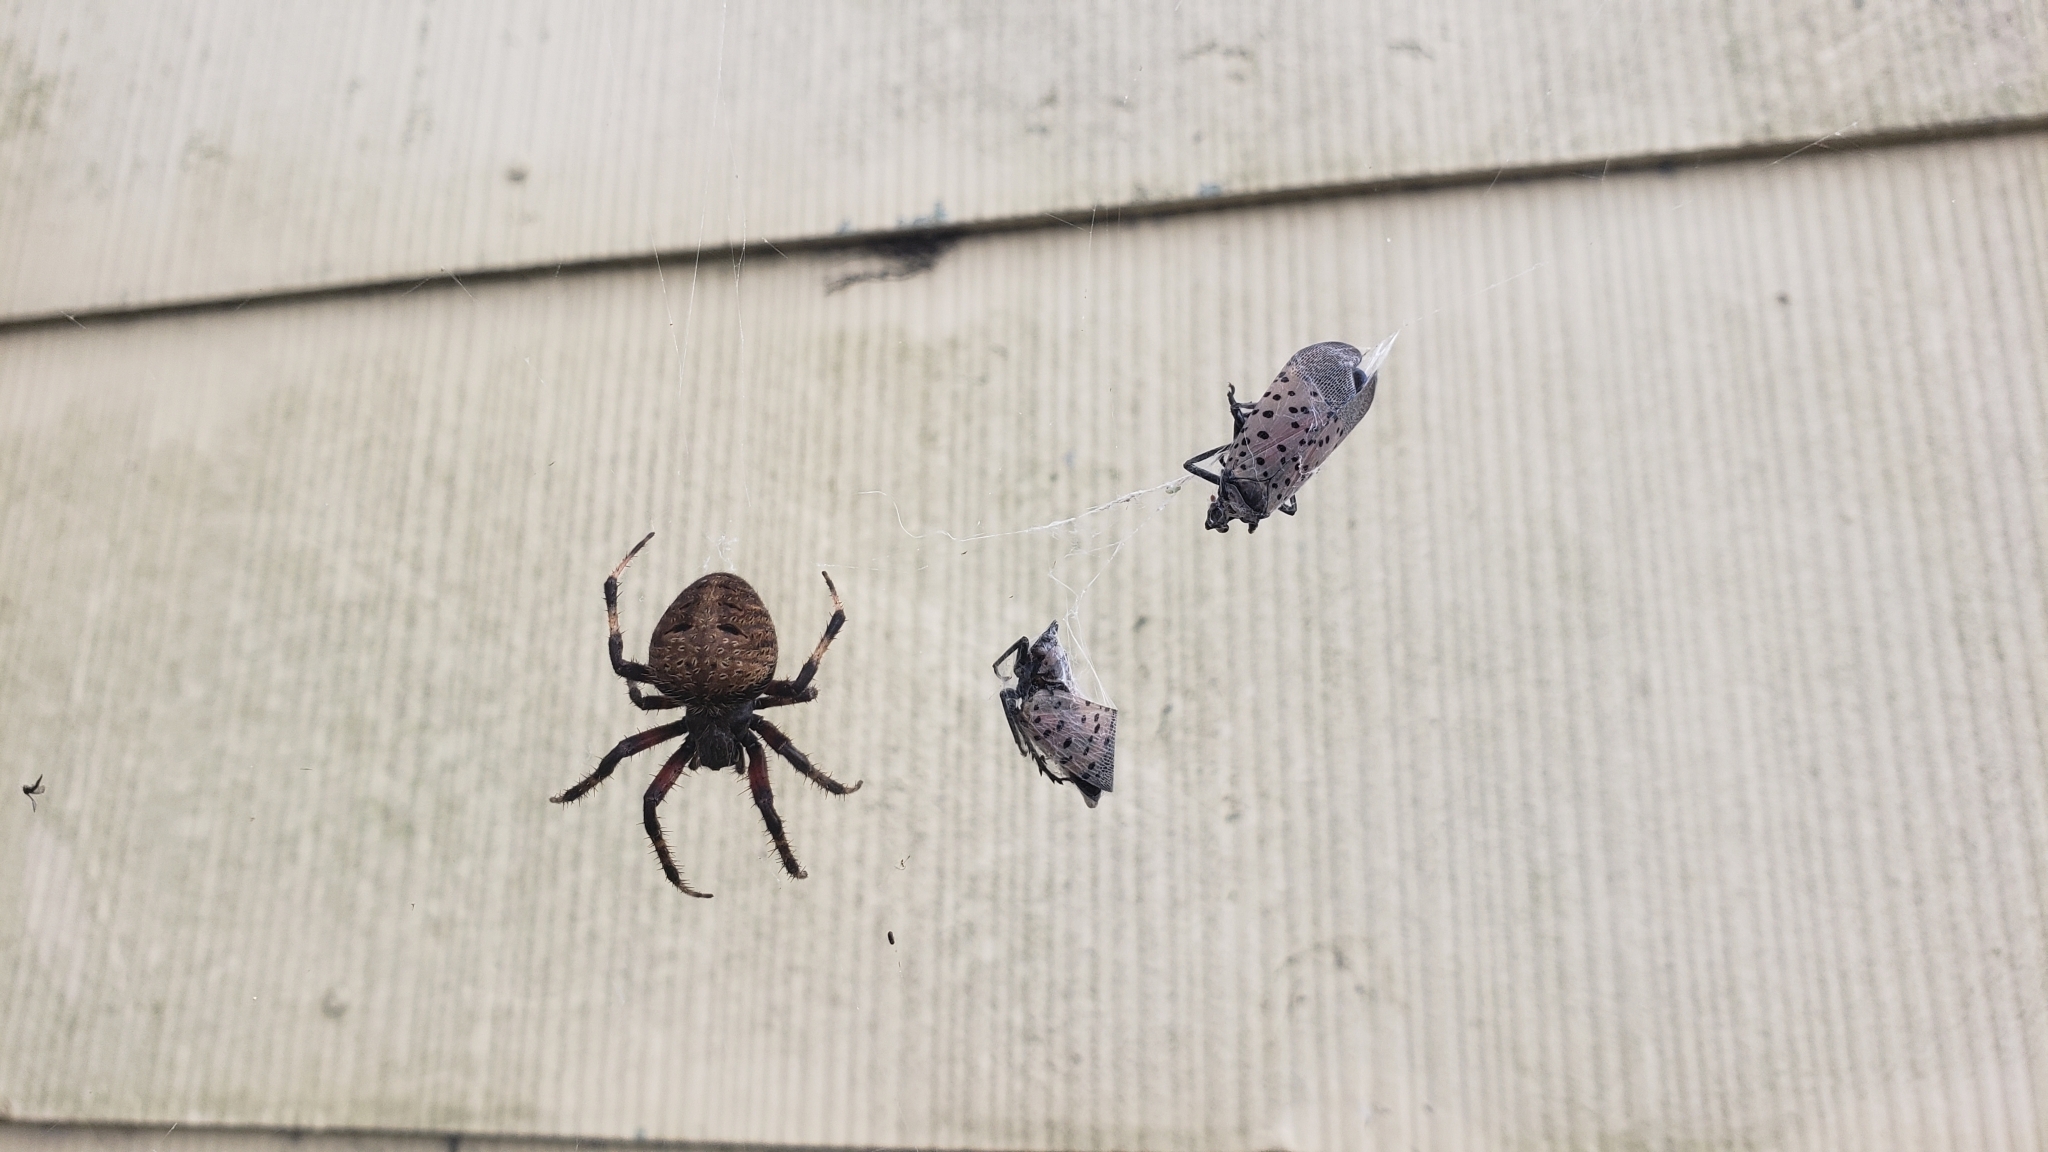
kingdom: Animalia
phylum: Arthropoda
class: Arachnida
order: Araneae
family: Araneidae
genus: Neoscona
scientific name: Neoscona crucifera
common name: Spotted orbweaver
